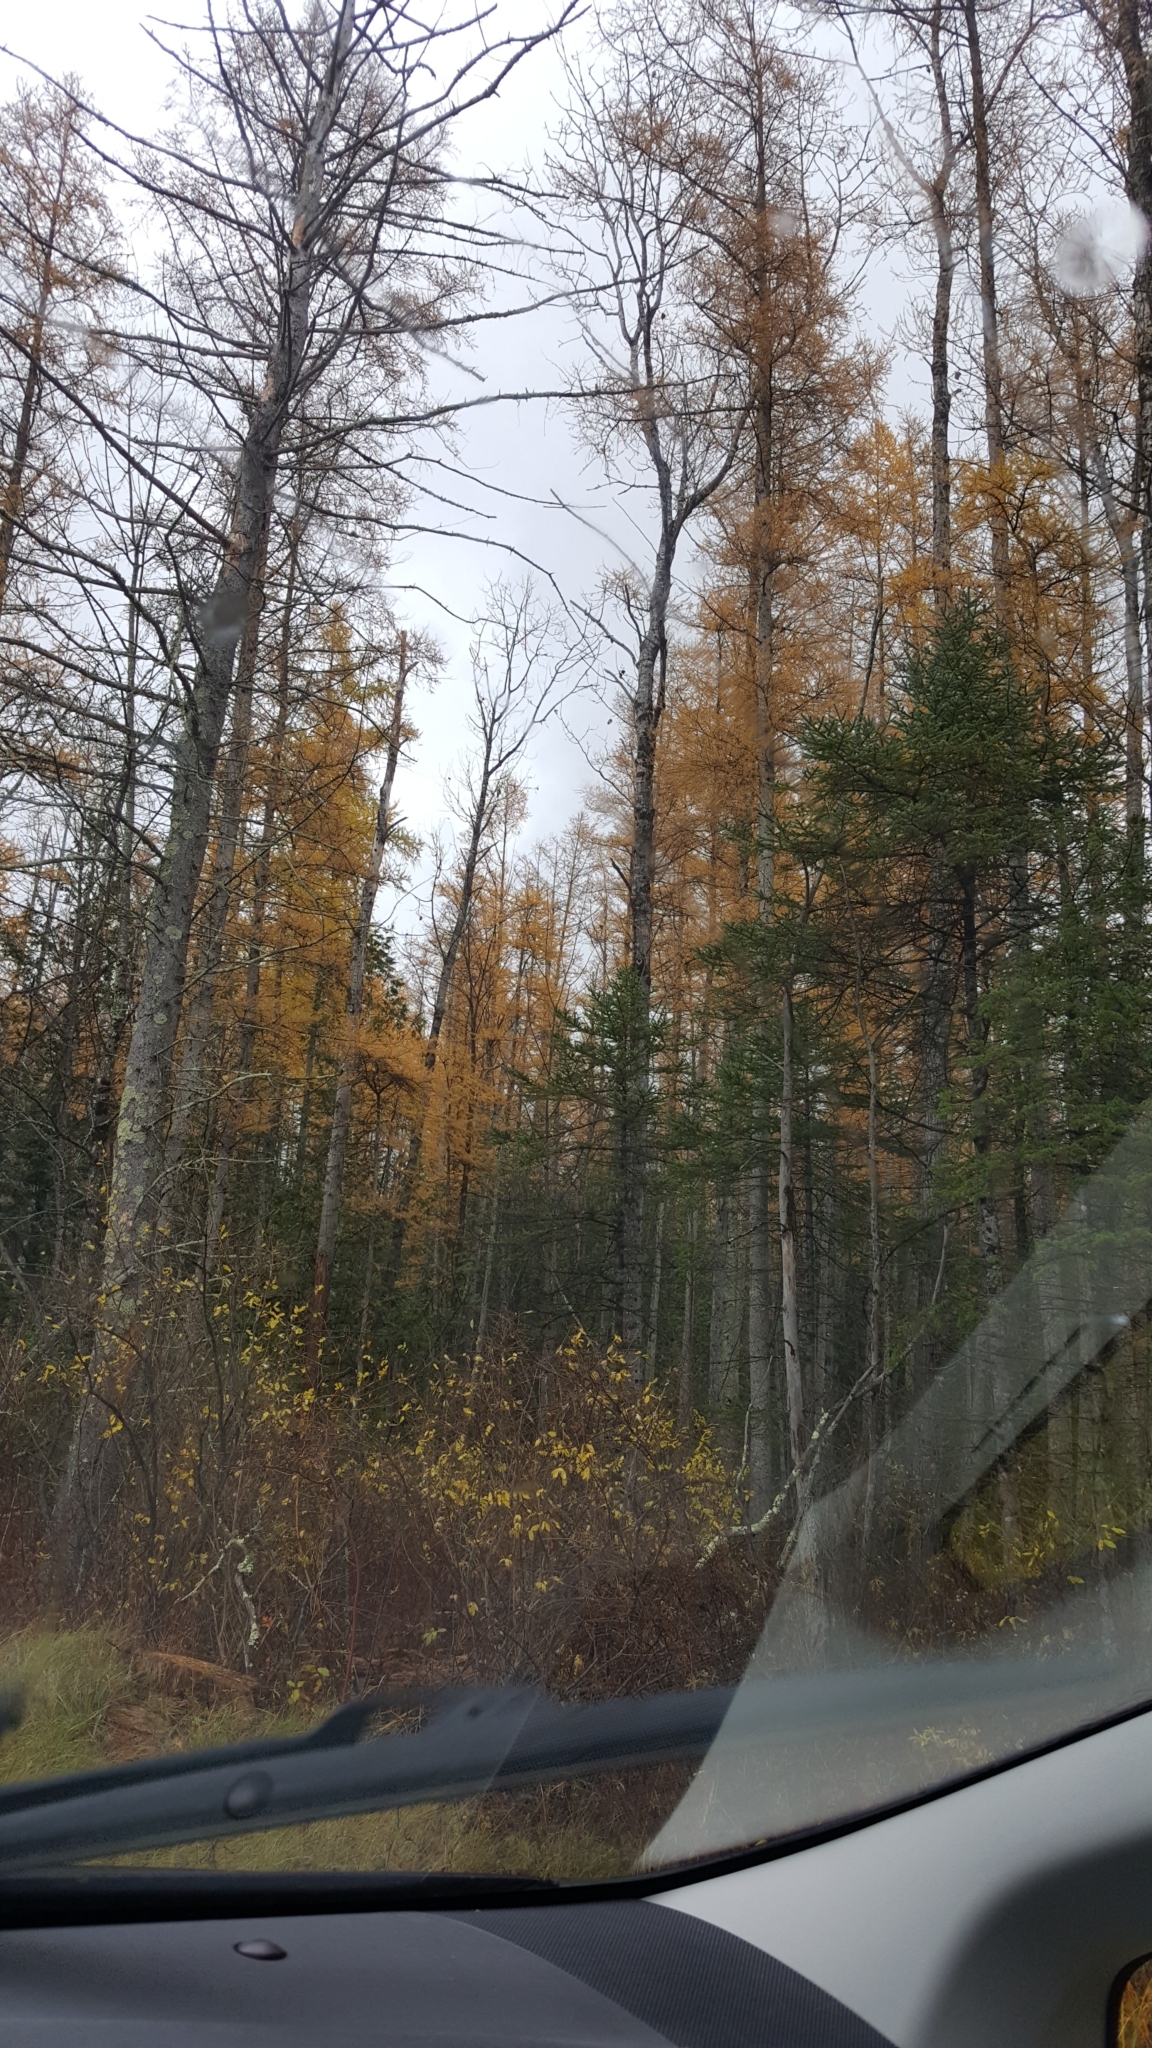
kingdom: Plantae
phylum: Tracheophyta
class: Pinopsida
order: Pinales
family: Pinaceae
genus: Larix
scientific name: Larix laricina
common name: American larch
